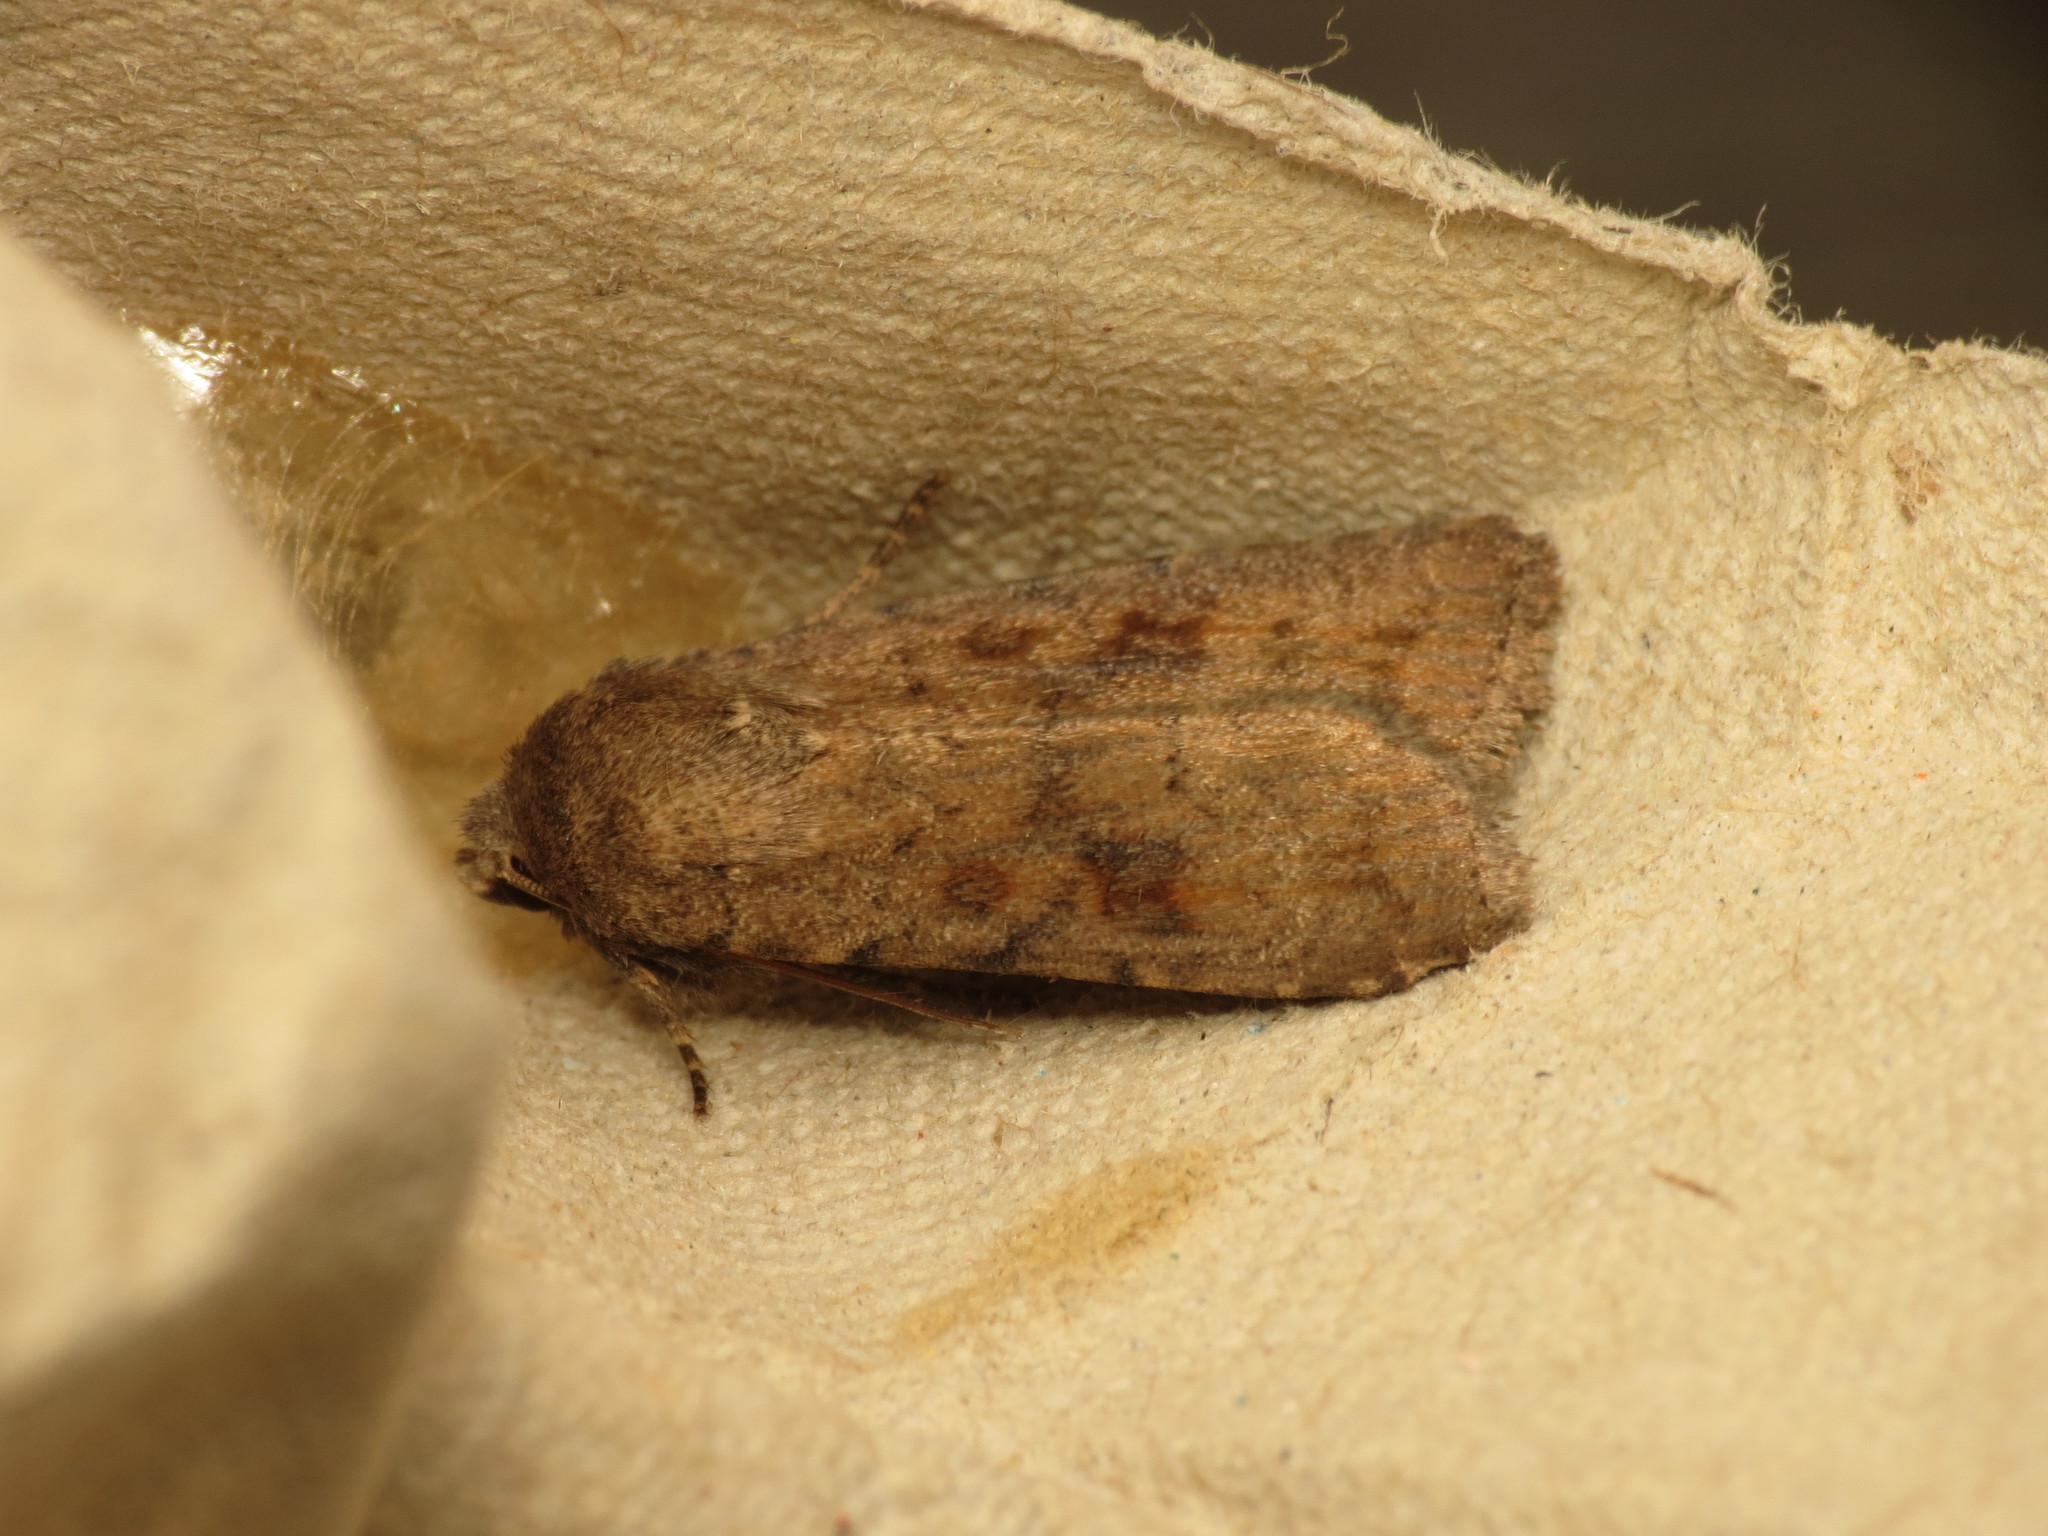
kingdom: Animalia
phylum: Arthropoda
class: Insecta
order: Lepidoptera
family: Noctuidae
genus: Caradrina
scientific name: Caradrina morpheus
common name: Mottled rustic
